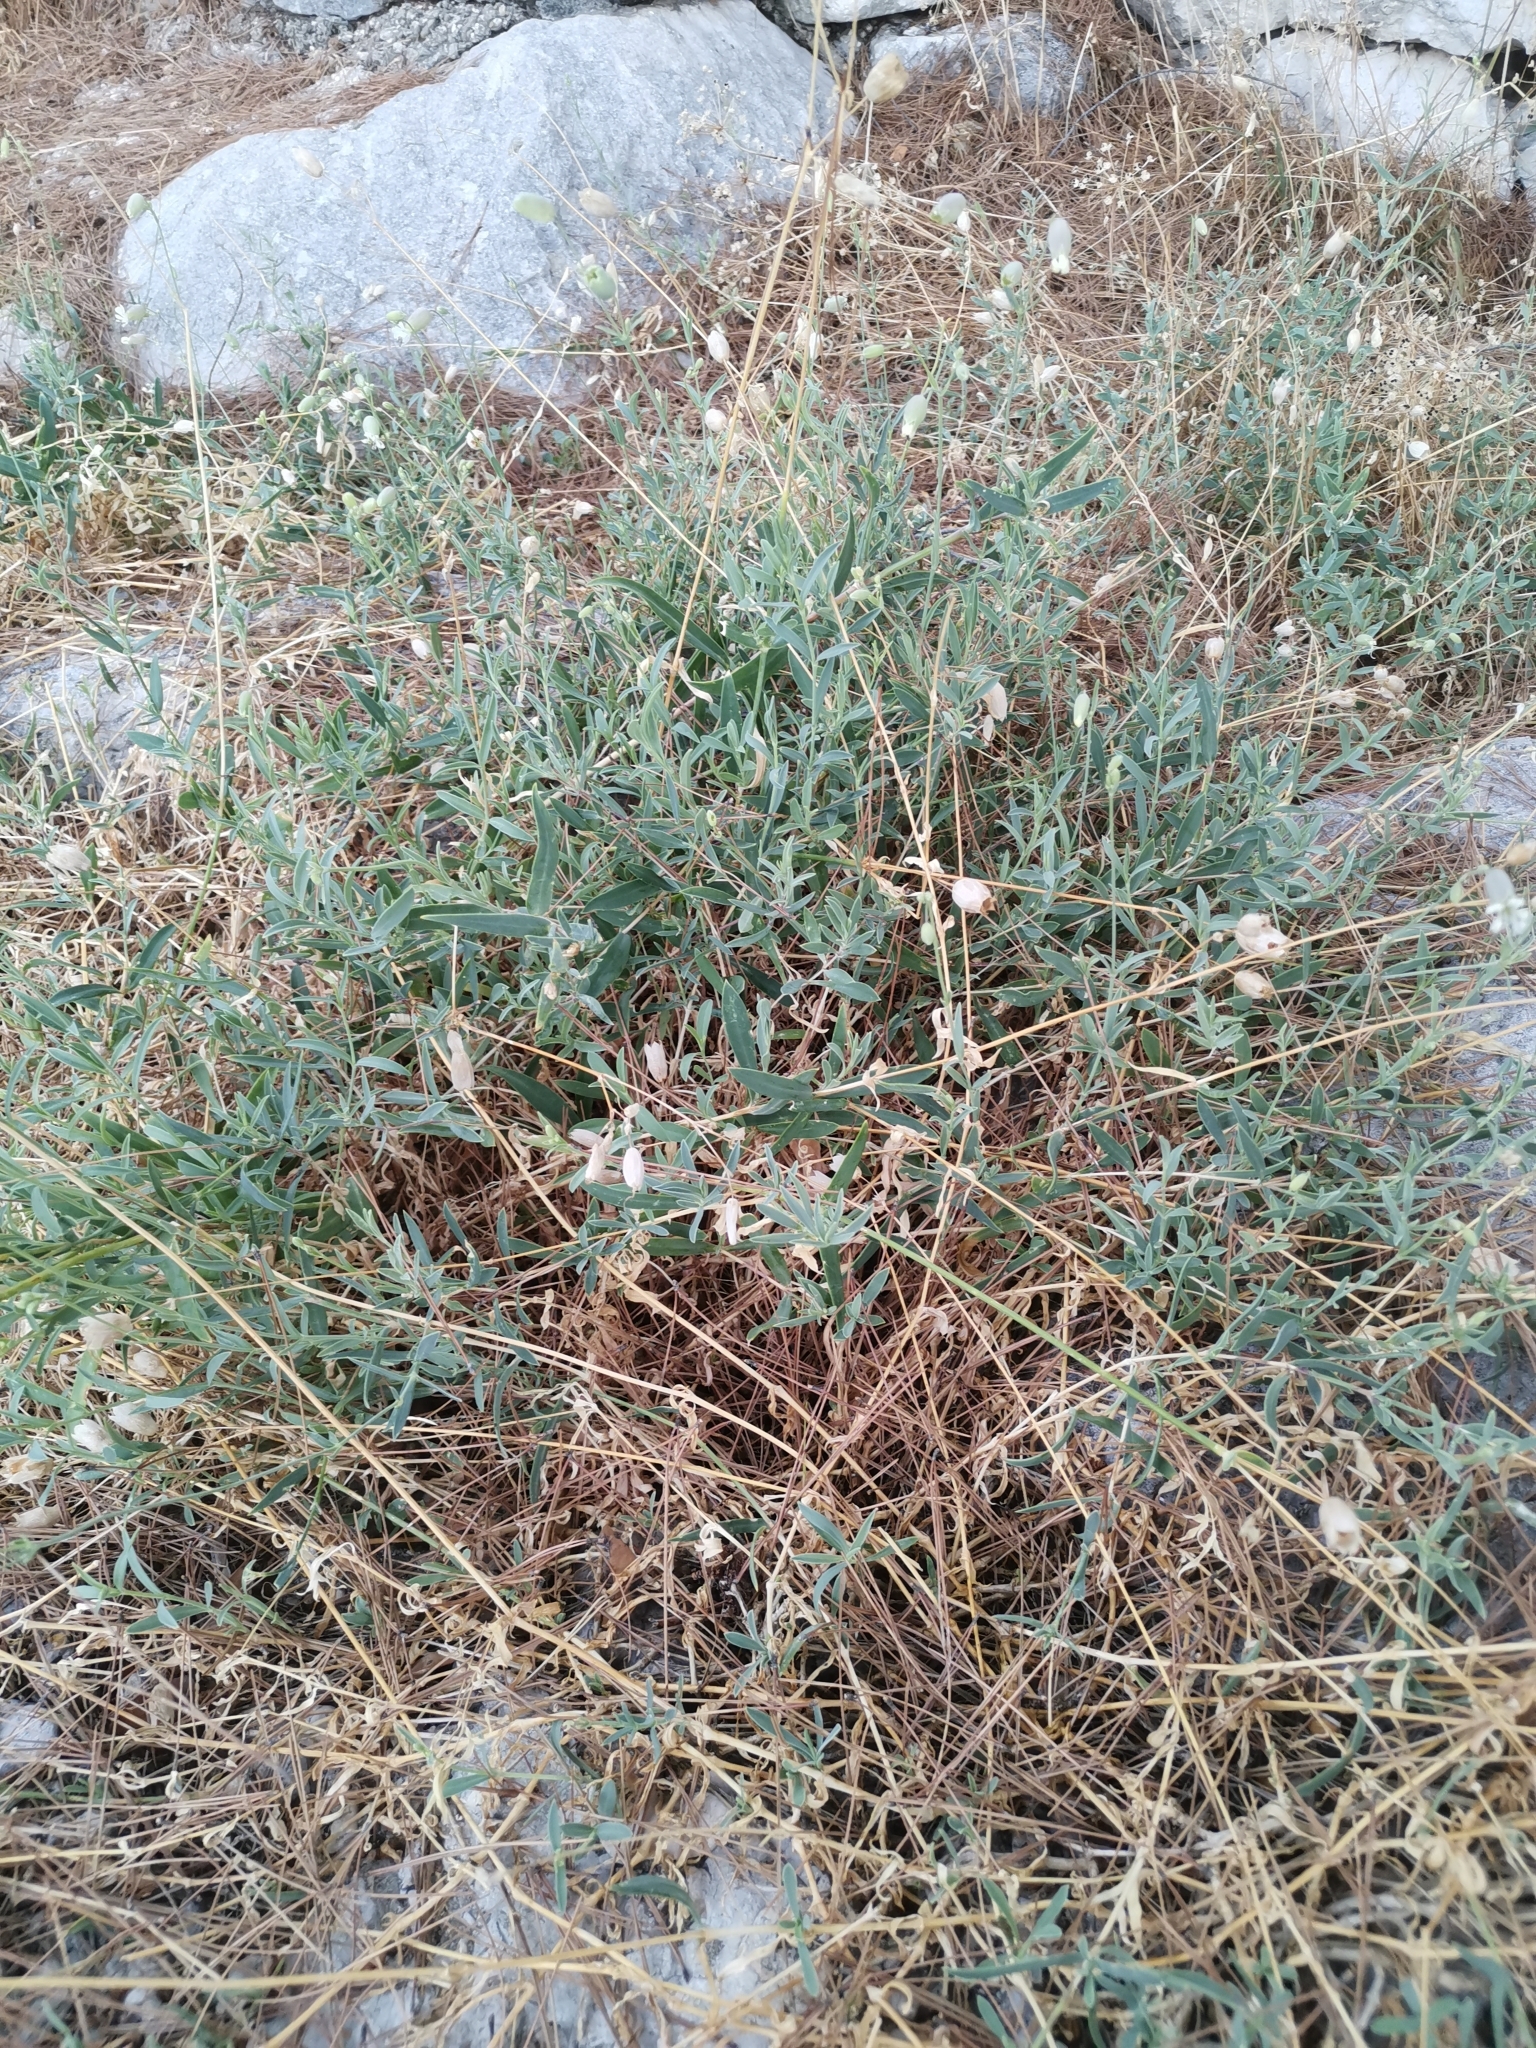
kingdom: Plantae
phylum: Tracheophyta
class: Magnoliopsida
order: Caryophyllales
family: Caryophyllaceae
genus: Silene
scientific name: Silene vulgaris
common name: Bladder campion
